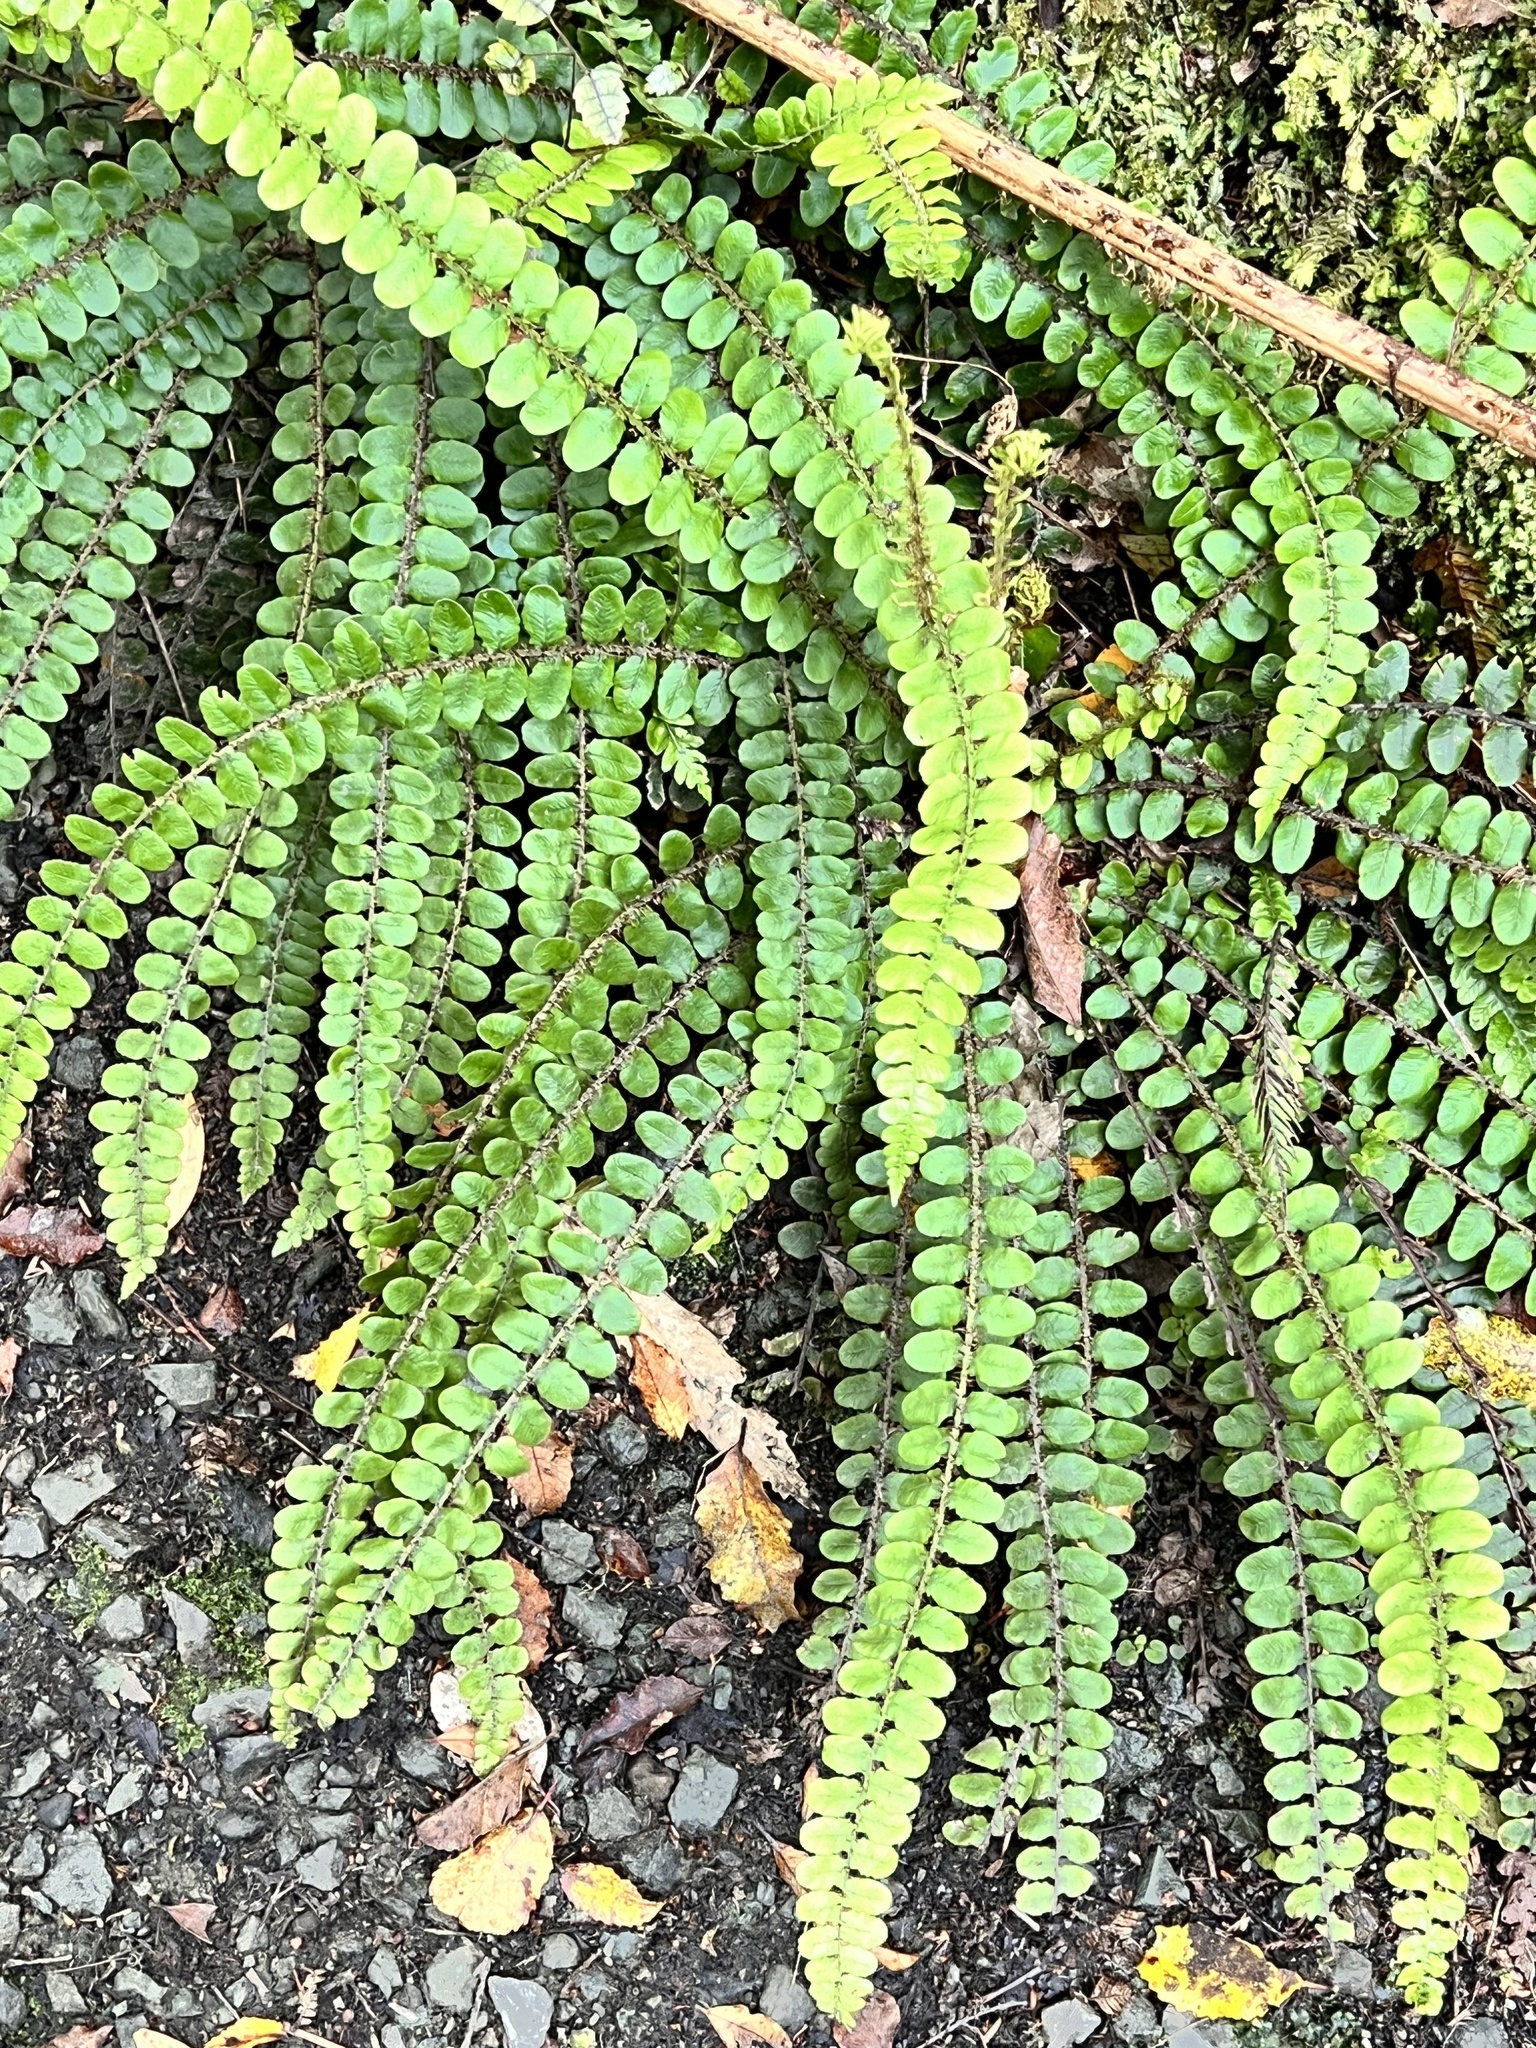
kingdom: Plantae
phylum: Tracheophyta
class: Polypodiopsida
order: Polypodiales
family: Blechnaceae
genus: Cranfillia
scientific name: Cranfillia fluviatilis
